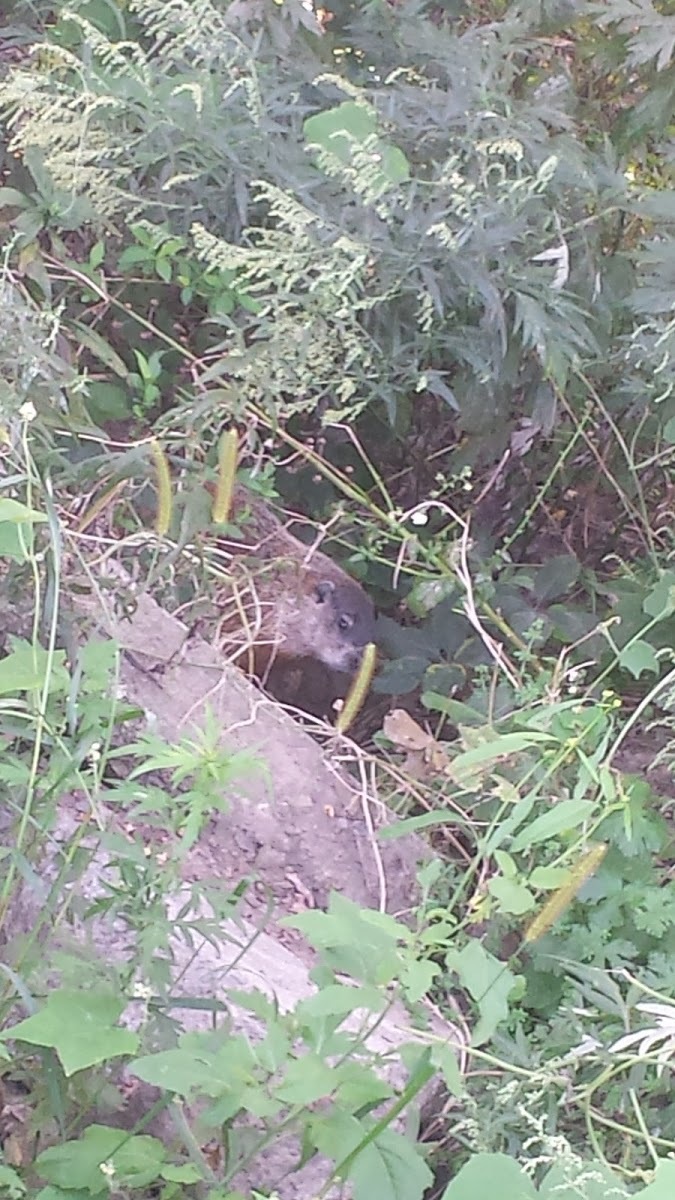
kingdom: Animalia
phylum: Chordata
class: Mammalia
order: Rodentia
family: Sciuridae
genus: Marmota
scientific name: Marmota monax
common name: Groundhog
